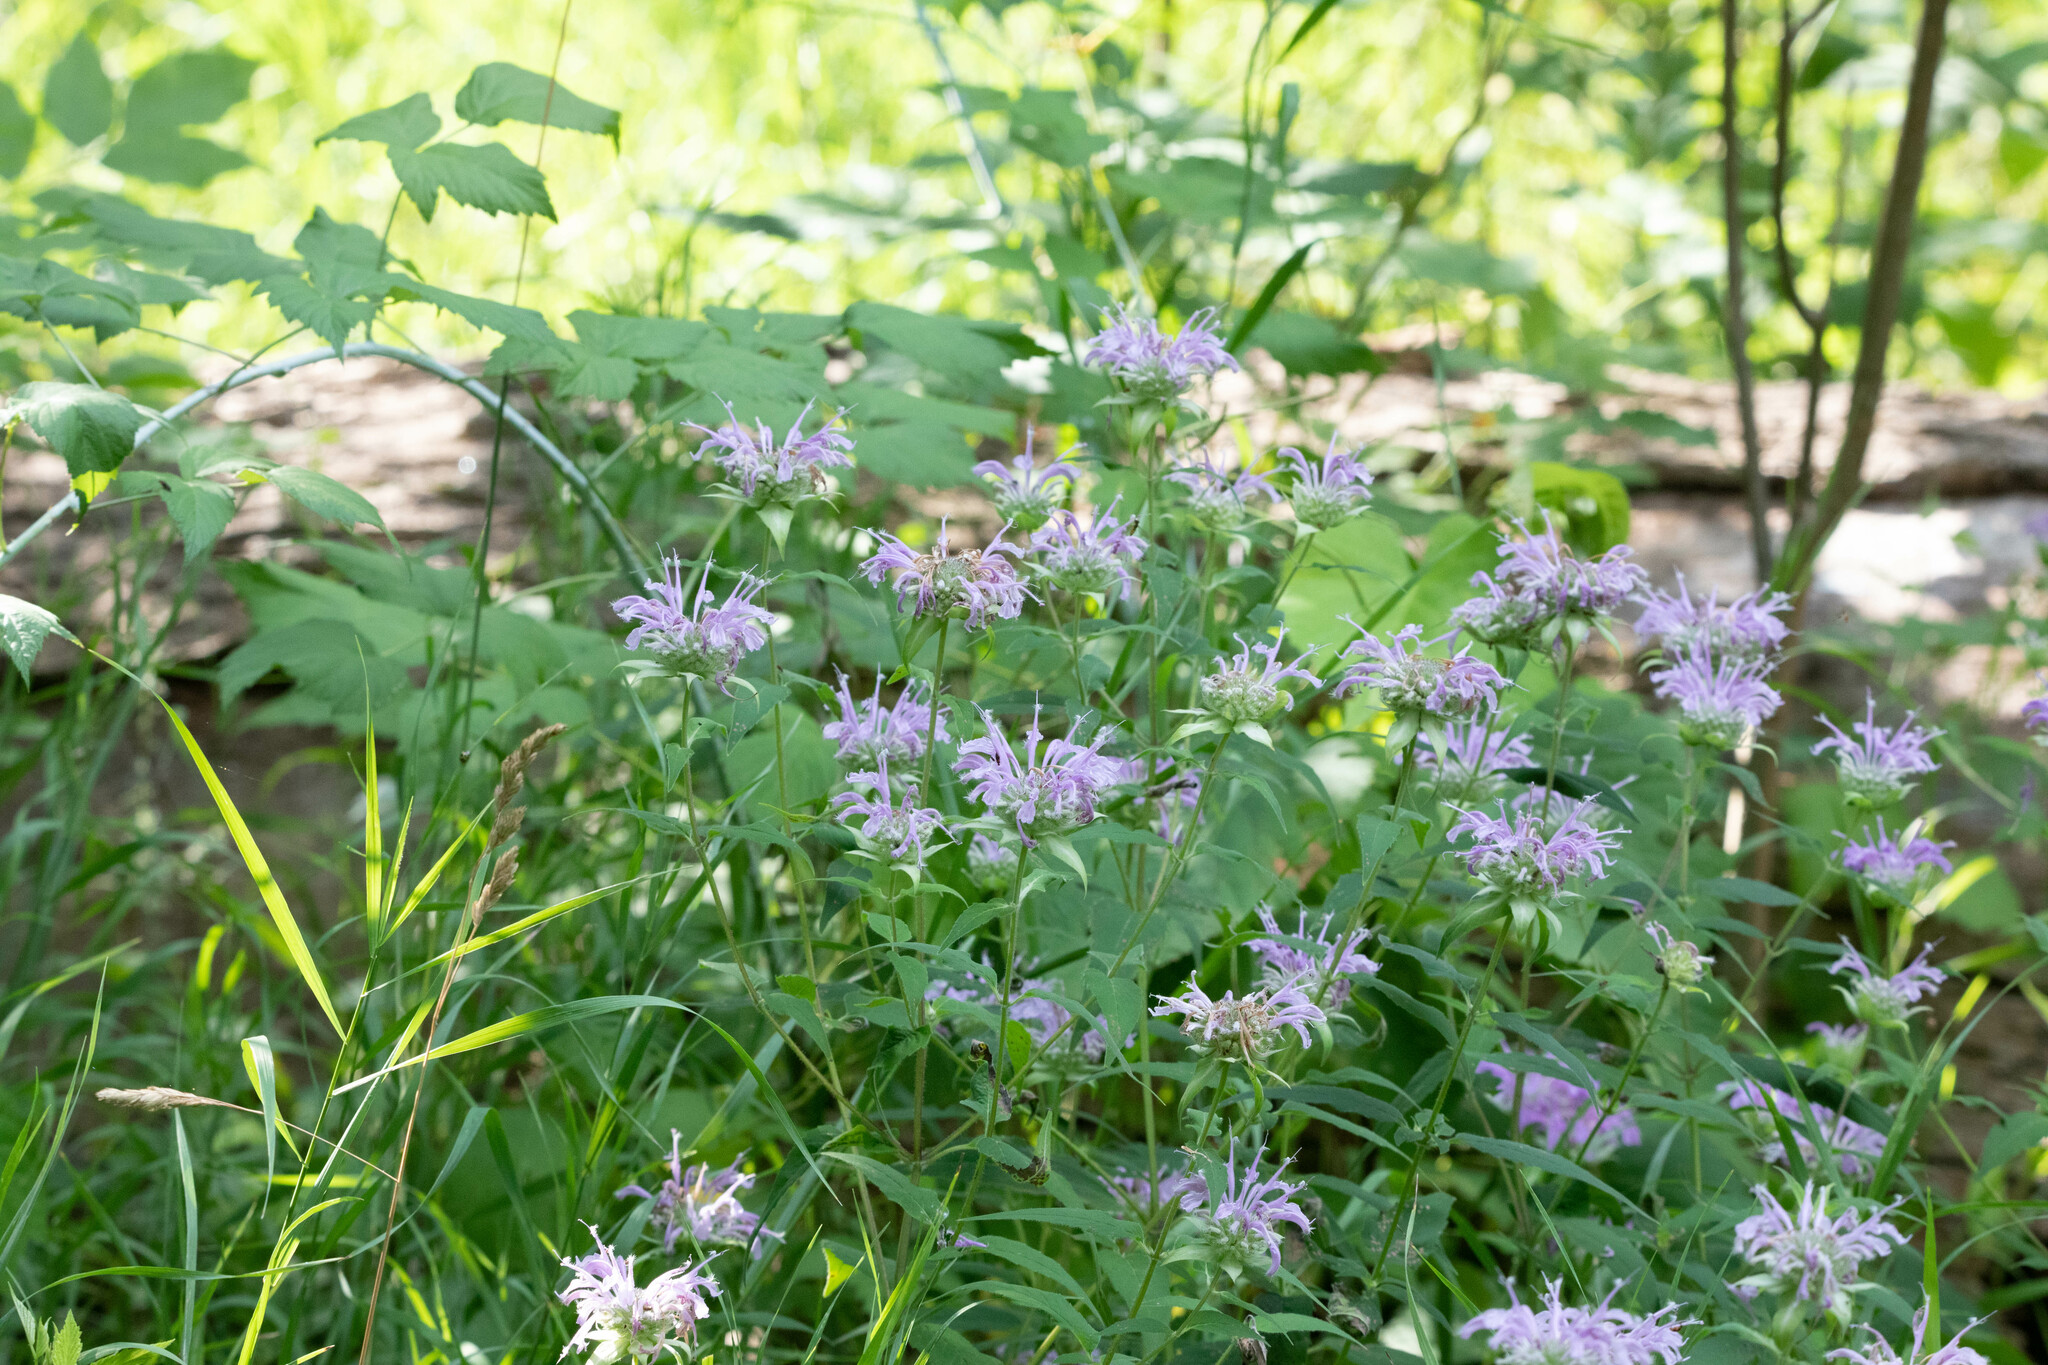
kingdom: Plantae
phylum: Tracheophyta
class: Magnoliopsida
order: Lamiales
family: Lamiaceae
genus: Monarda
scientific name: Monarda fistulosa
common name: Purple beebalm
